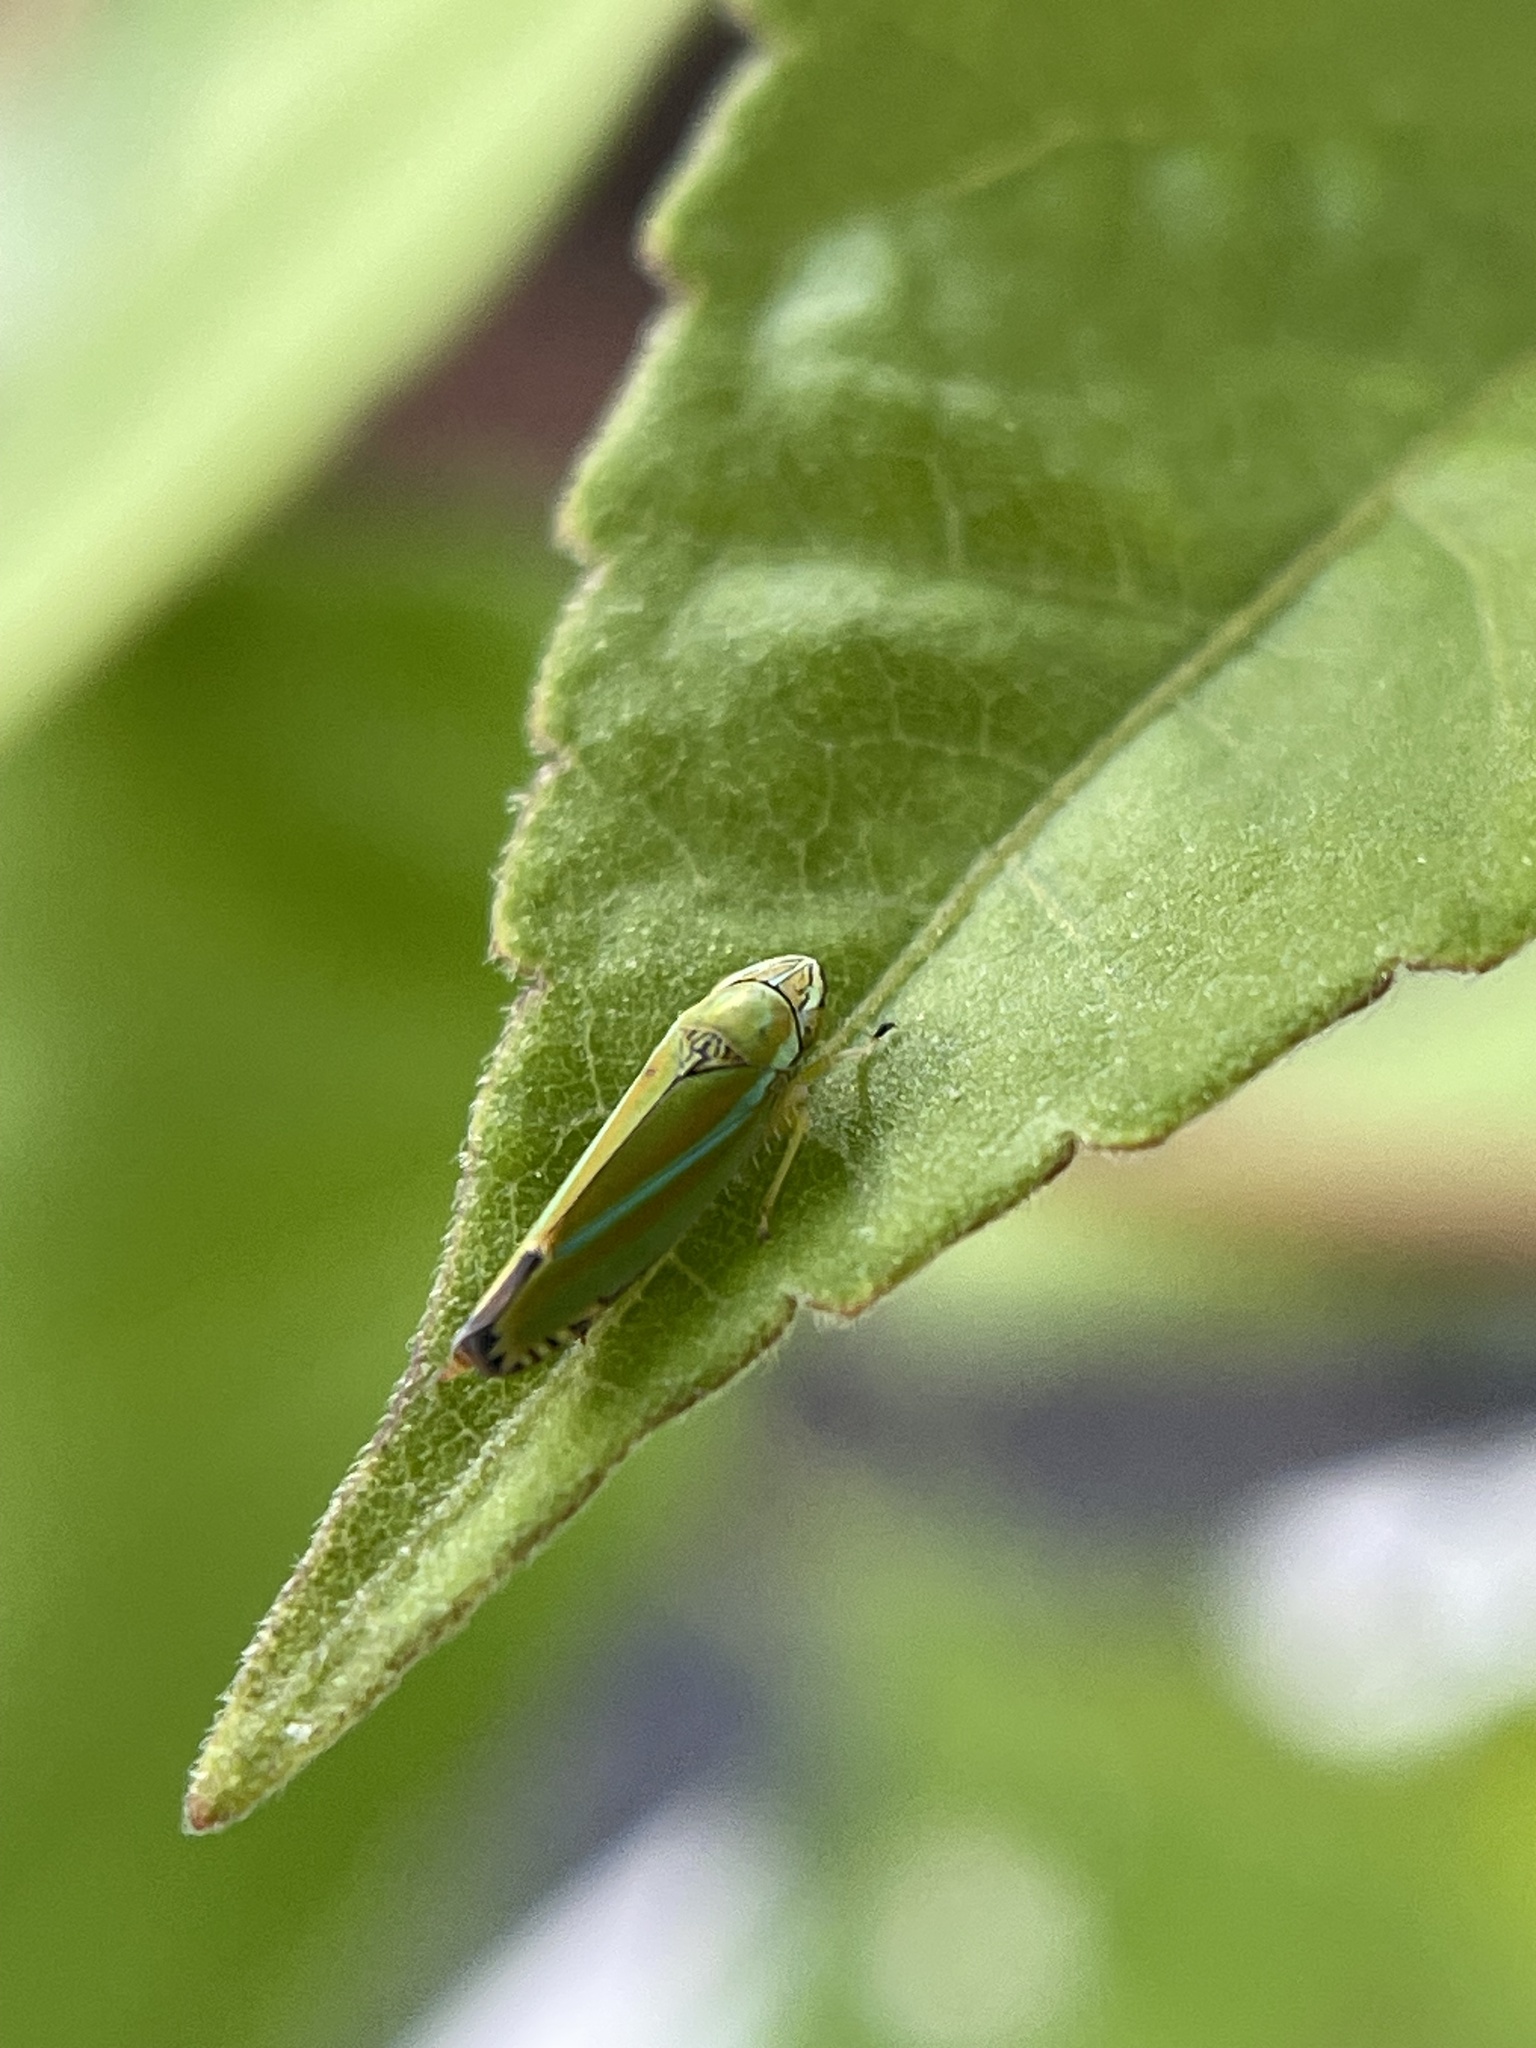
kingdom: Animalia
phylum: Arthropoda
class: Insecta
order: Hemiptera
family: Cicadellidae
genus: Graphocephala
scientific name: Graphocephala versuta
